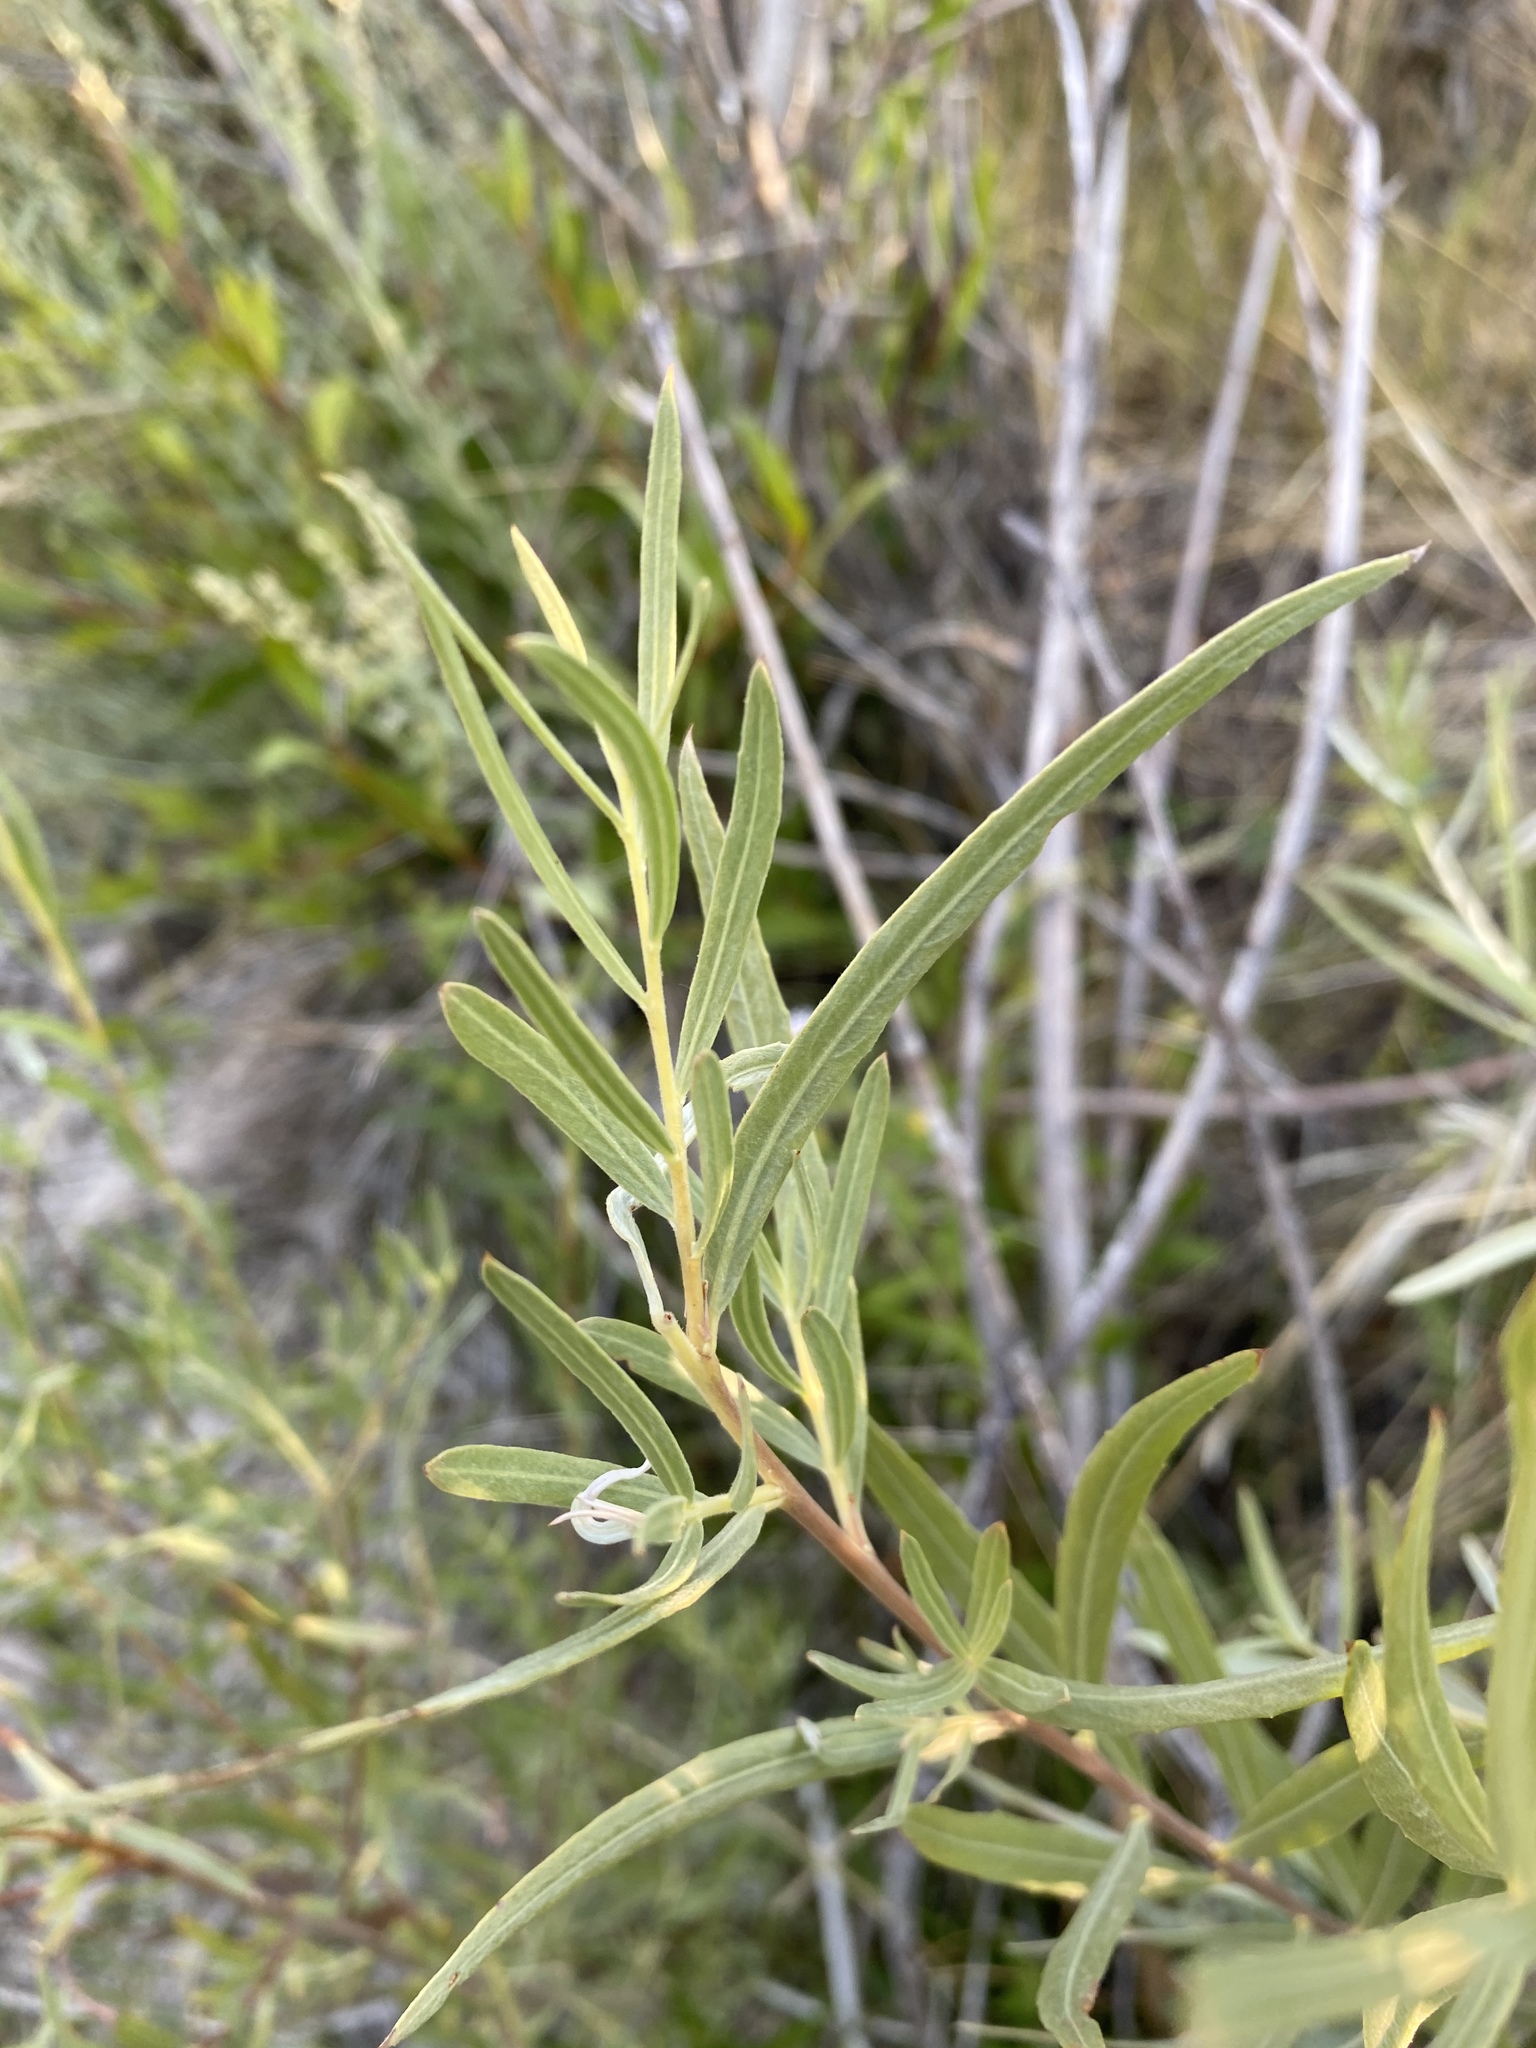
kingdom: Plantae
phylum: Tracheophyta
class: Magnoliopsida
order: Malpighiales
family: Salicaceae
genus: Salix
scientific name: Salix exigua
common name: Coyote willow
